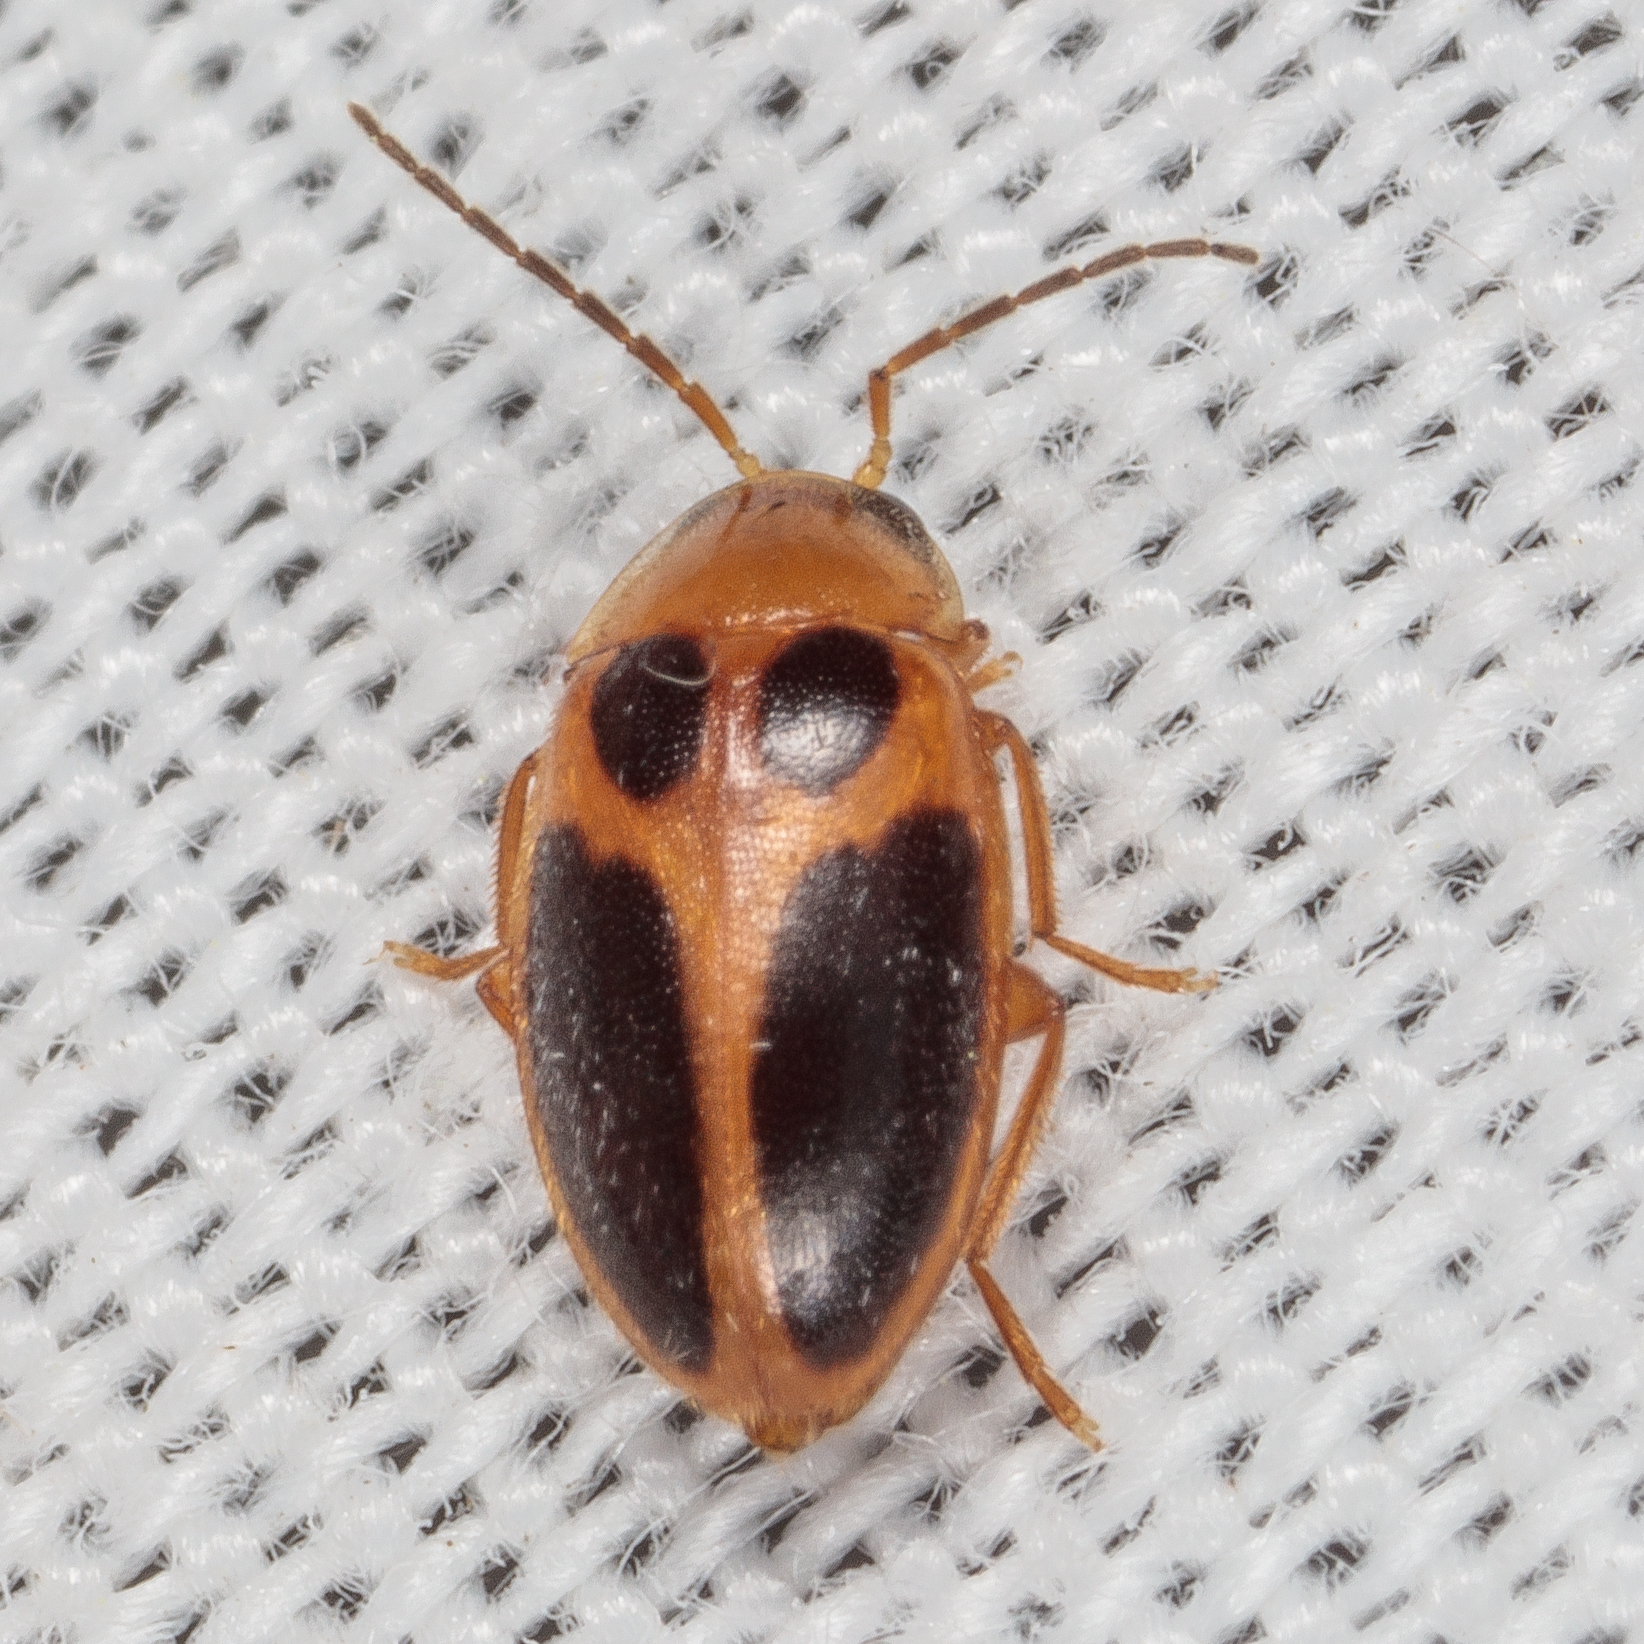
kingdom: Animalia
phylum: Arthropoda
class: Insecta
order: Coleoptera
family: Scirtidae
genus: Sacodes
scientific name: Sacodes pulchella
